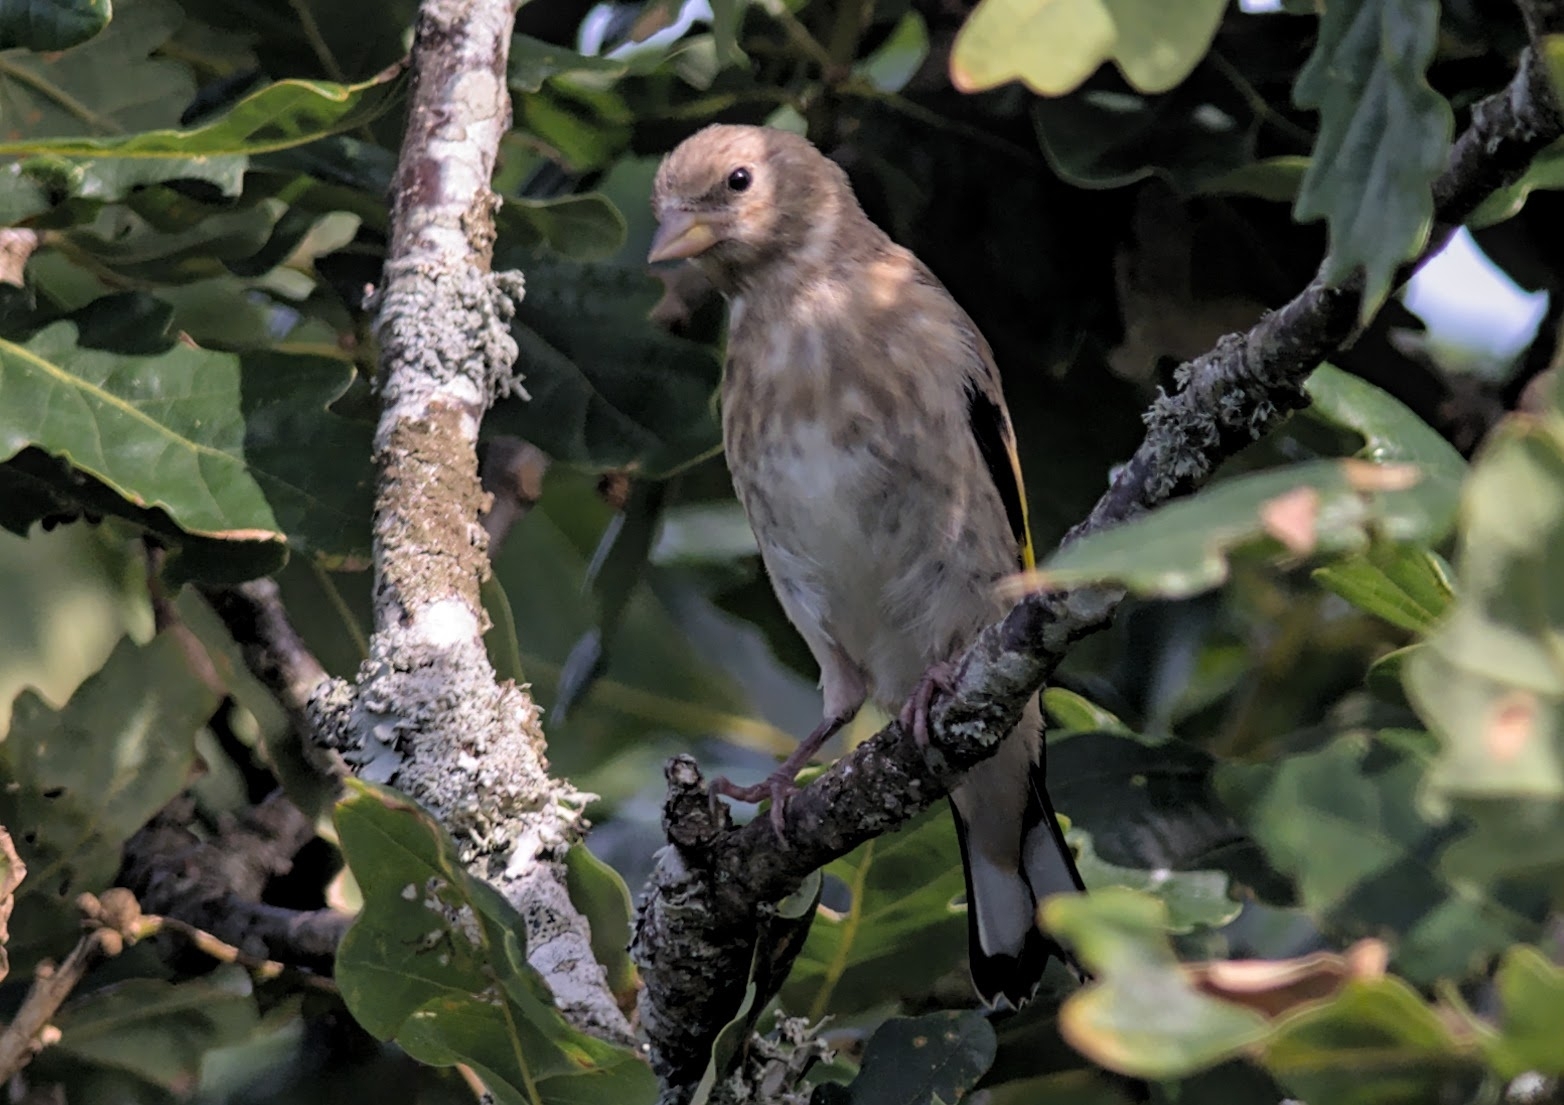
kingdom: Animalia
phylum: Chordata
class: Aves
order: Passeriformes
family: Fringillidae
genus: Carduelis
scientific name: Carduelis carduelis
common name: European goldfinch
